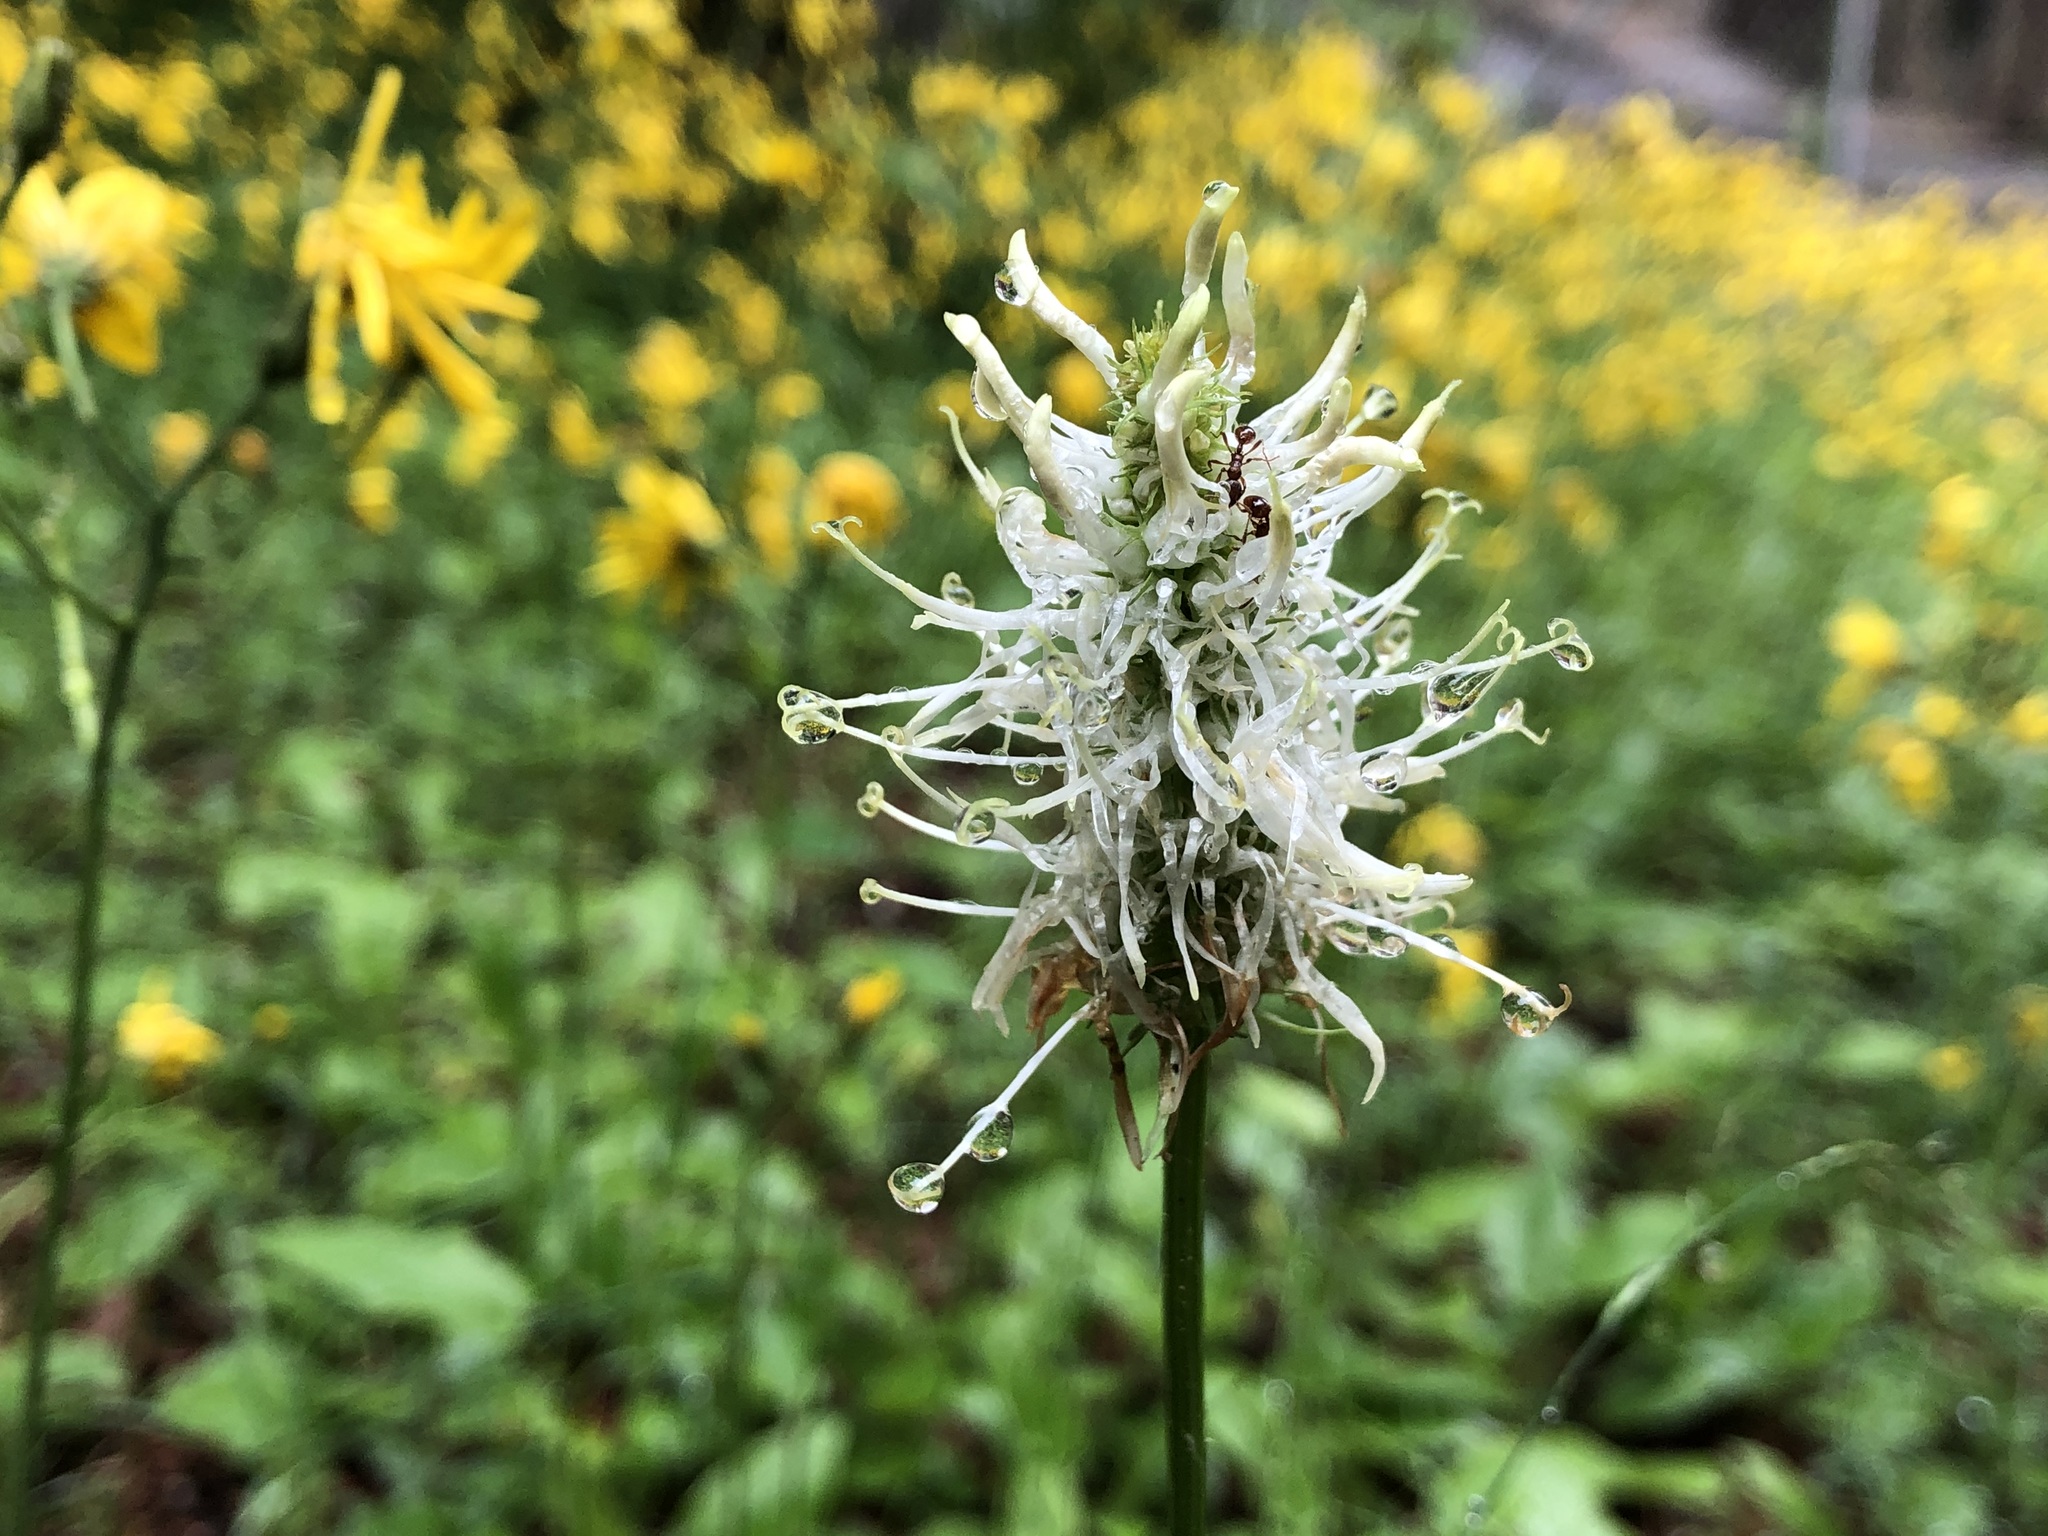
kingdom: Plantae
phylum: Tracheophyta
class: Magnoliopsida
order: Asterales
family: Campanulaceae
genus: Phyteuma
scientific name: Phyteuma spicatum
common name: Spiked rampion
